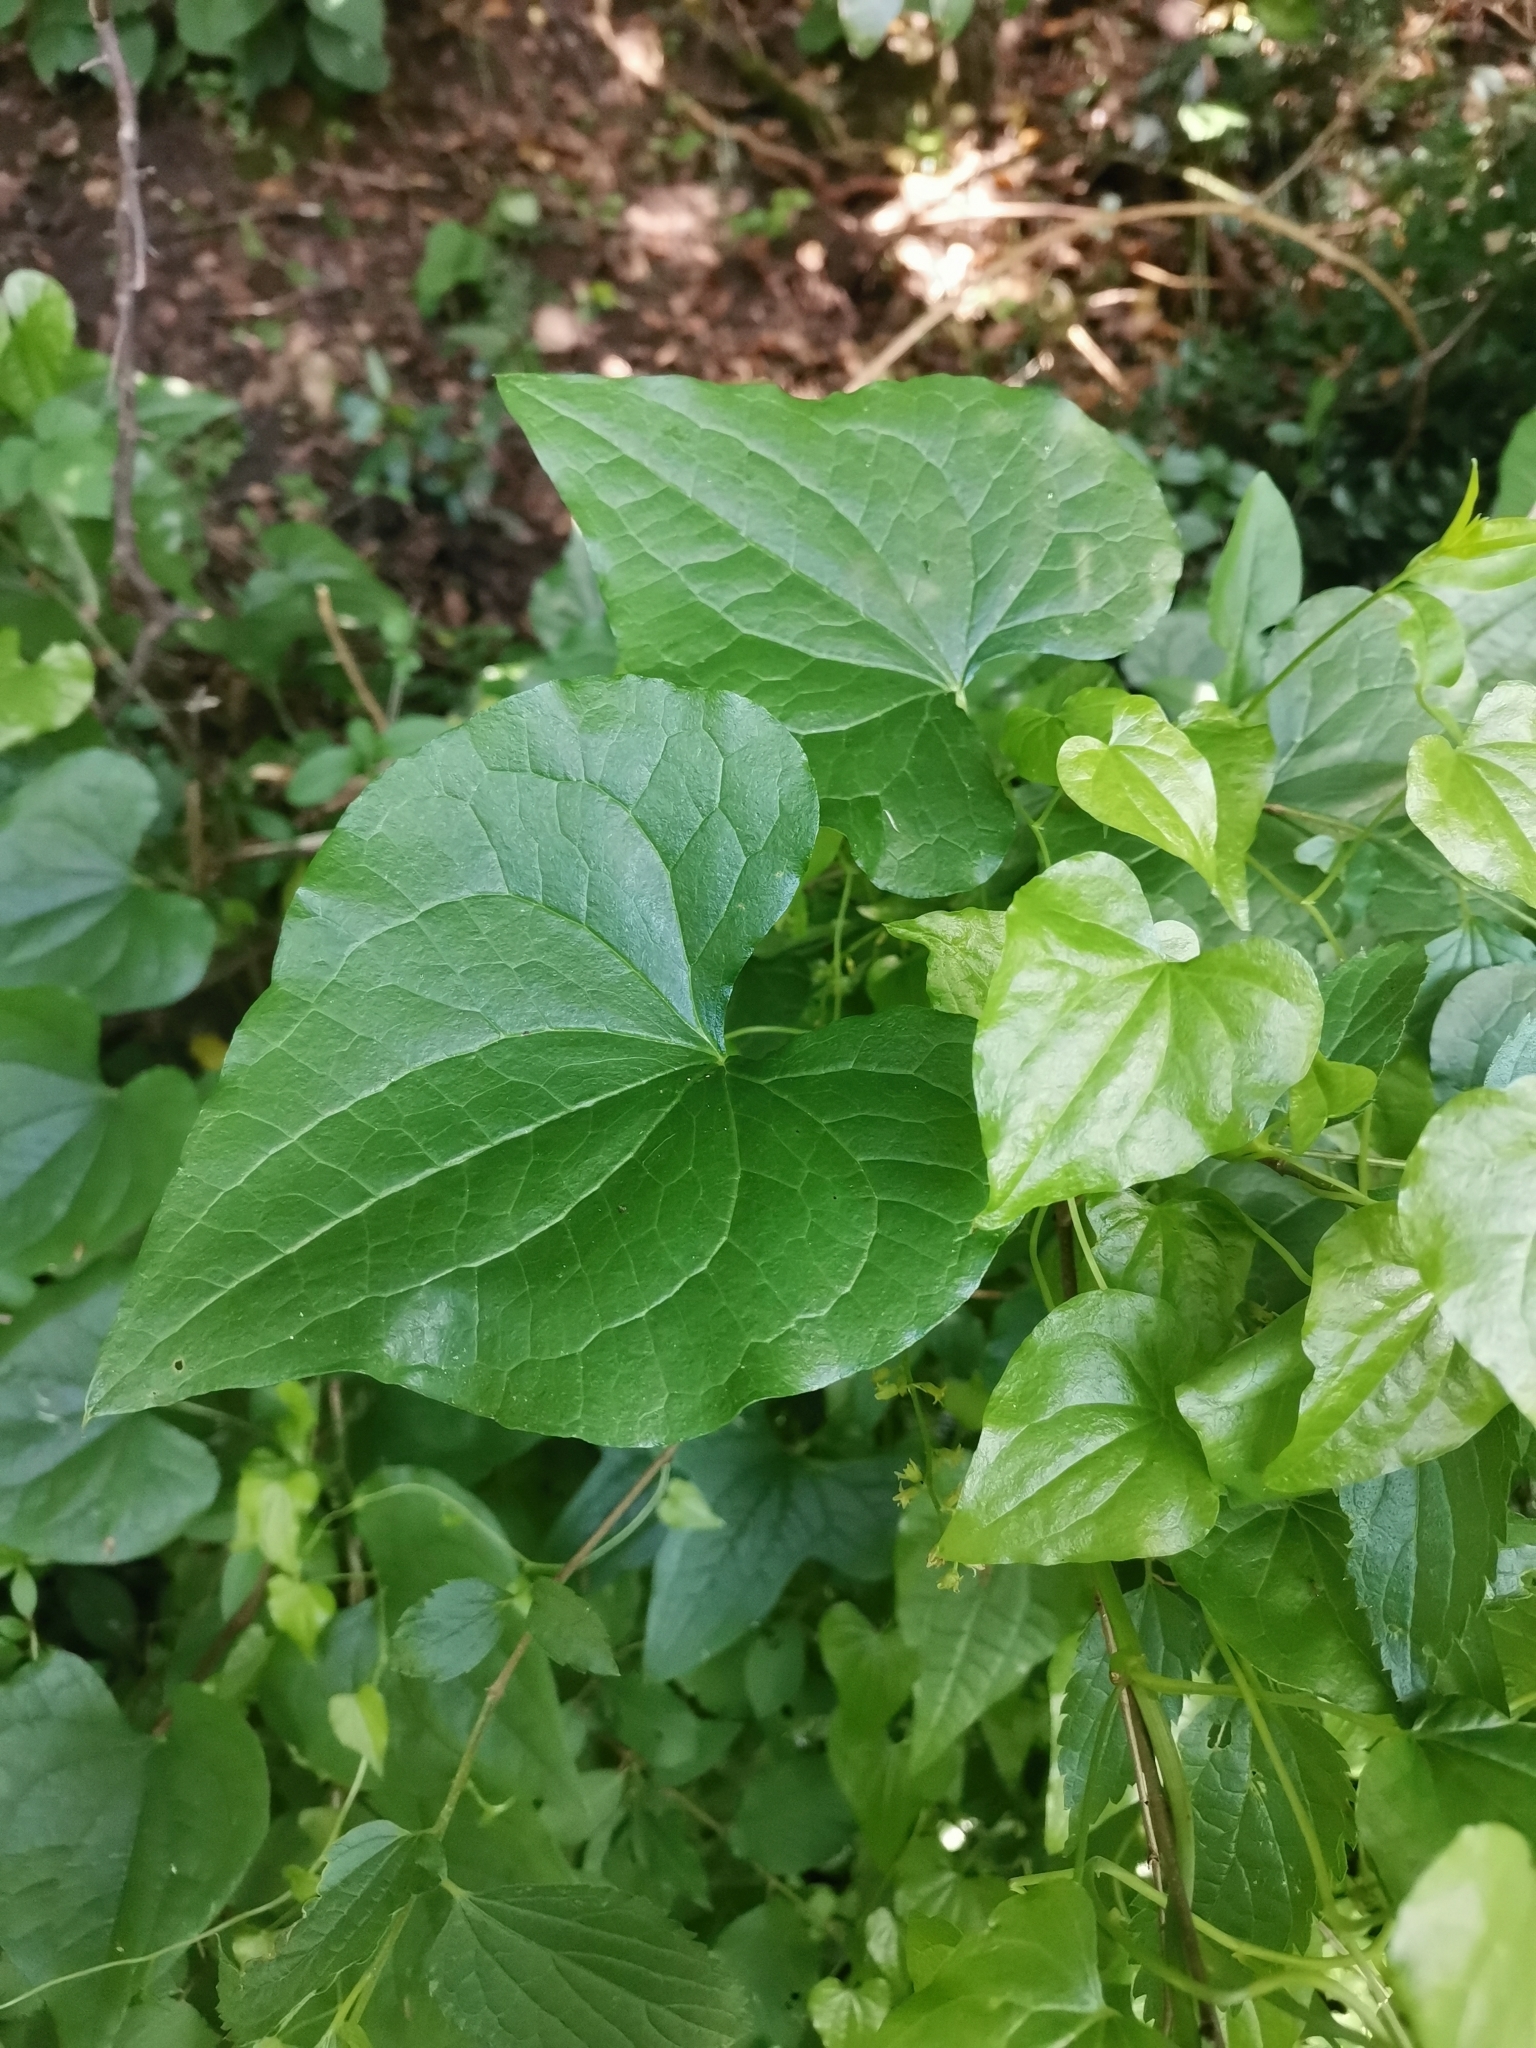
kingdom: Plantae
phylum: Tracheophyta
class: Liliopsida
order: Dioscoreales
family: Dioscoreaceae
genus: Dioscorea
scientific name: Dioscorea communis
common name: Black-bindweed
